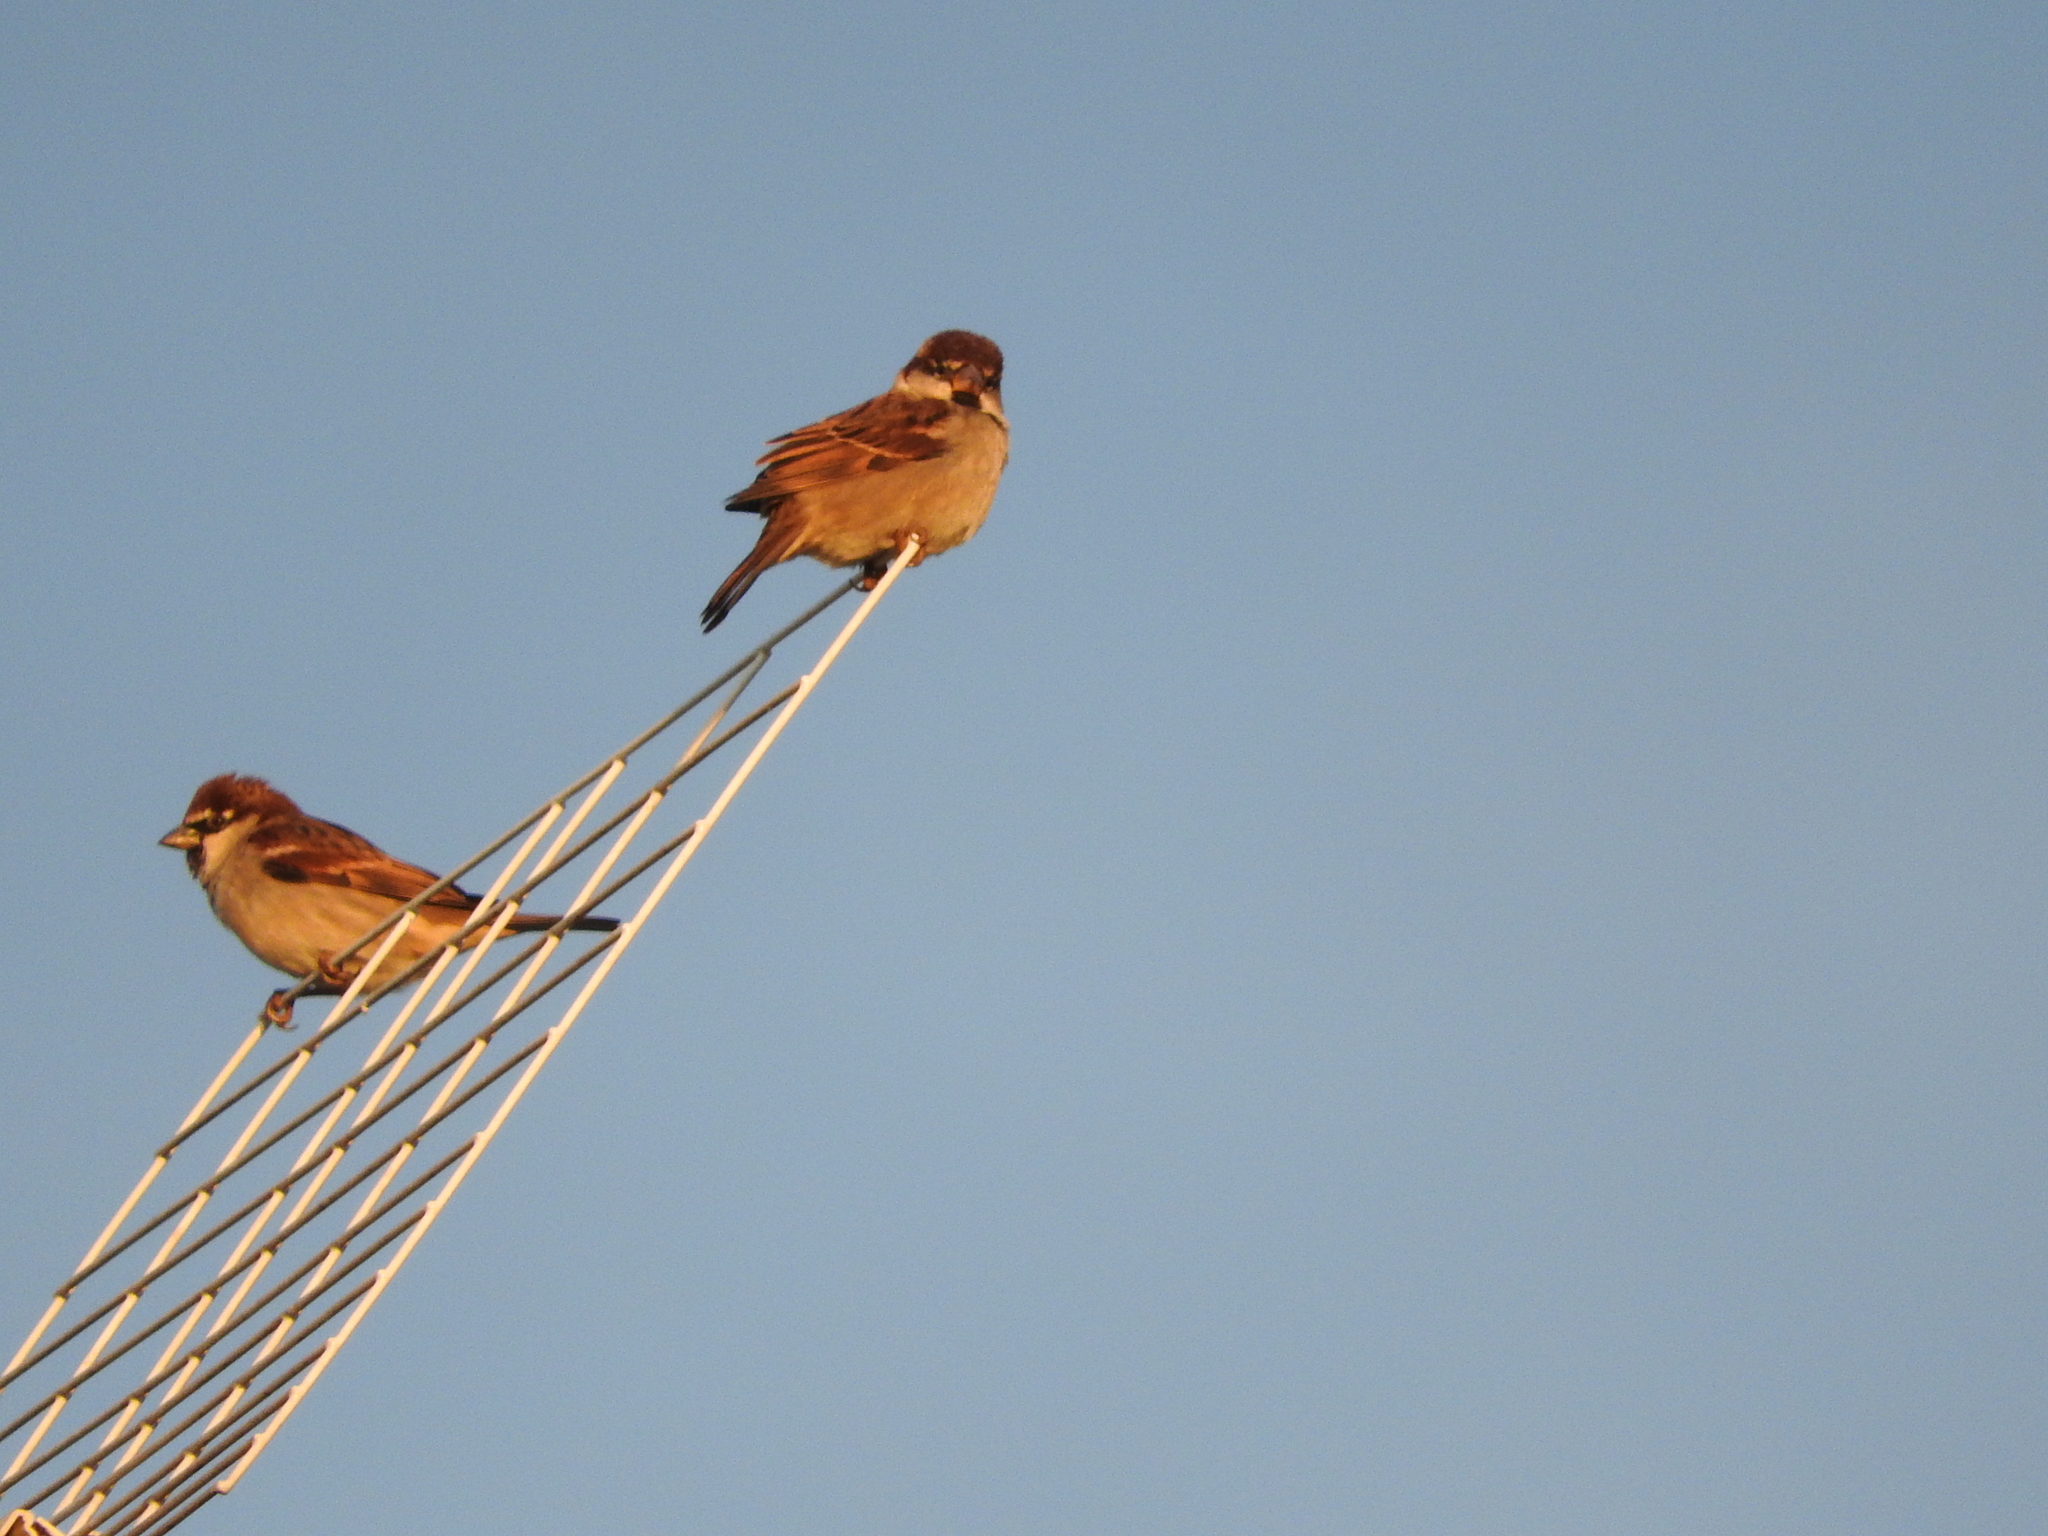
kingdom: Animalia
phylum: Chordata
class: Aves
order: Passeriformes
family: Passeridae
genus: Passer
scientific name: Passer italiae
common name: Italian sparrow
